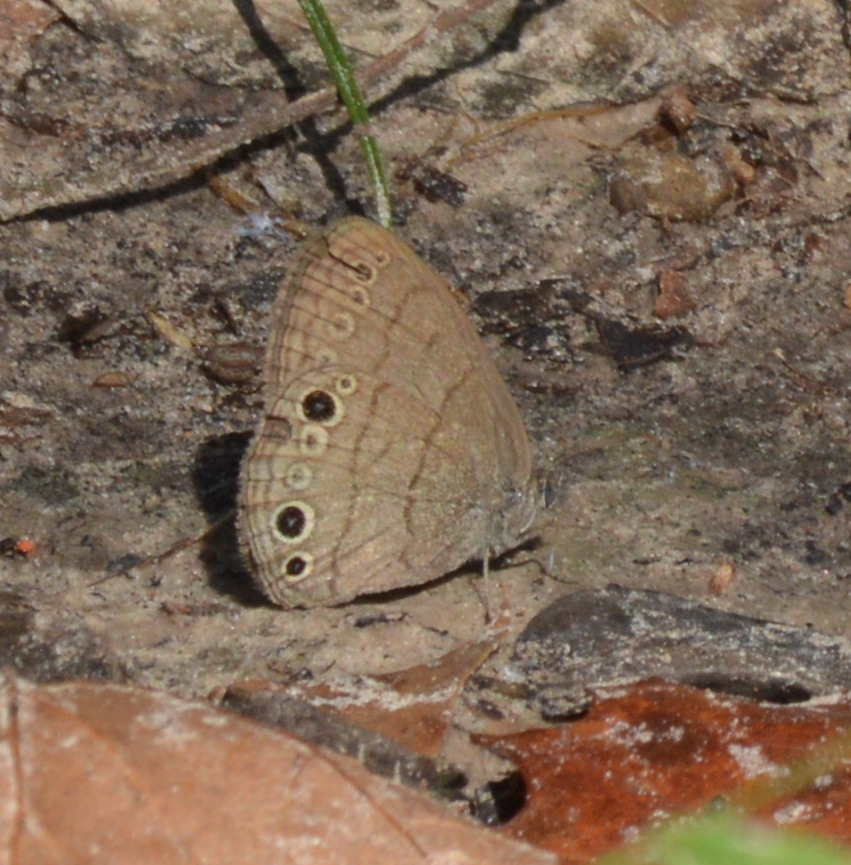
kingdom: Animalia
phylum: Arthropoda
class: Insecta
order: Lepidoptera
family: Nymphalidae
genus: Hermeuptychia
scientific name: Hermeuptychia hermes
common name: Hermes satyr
